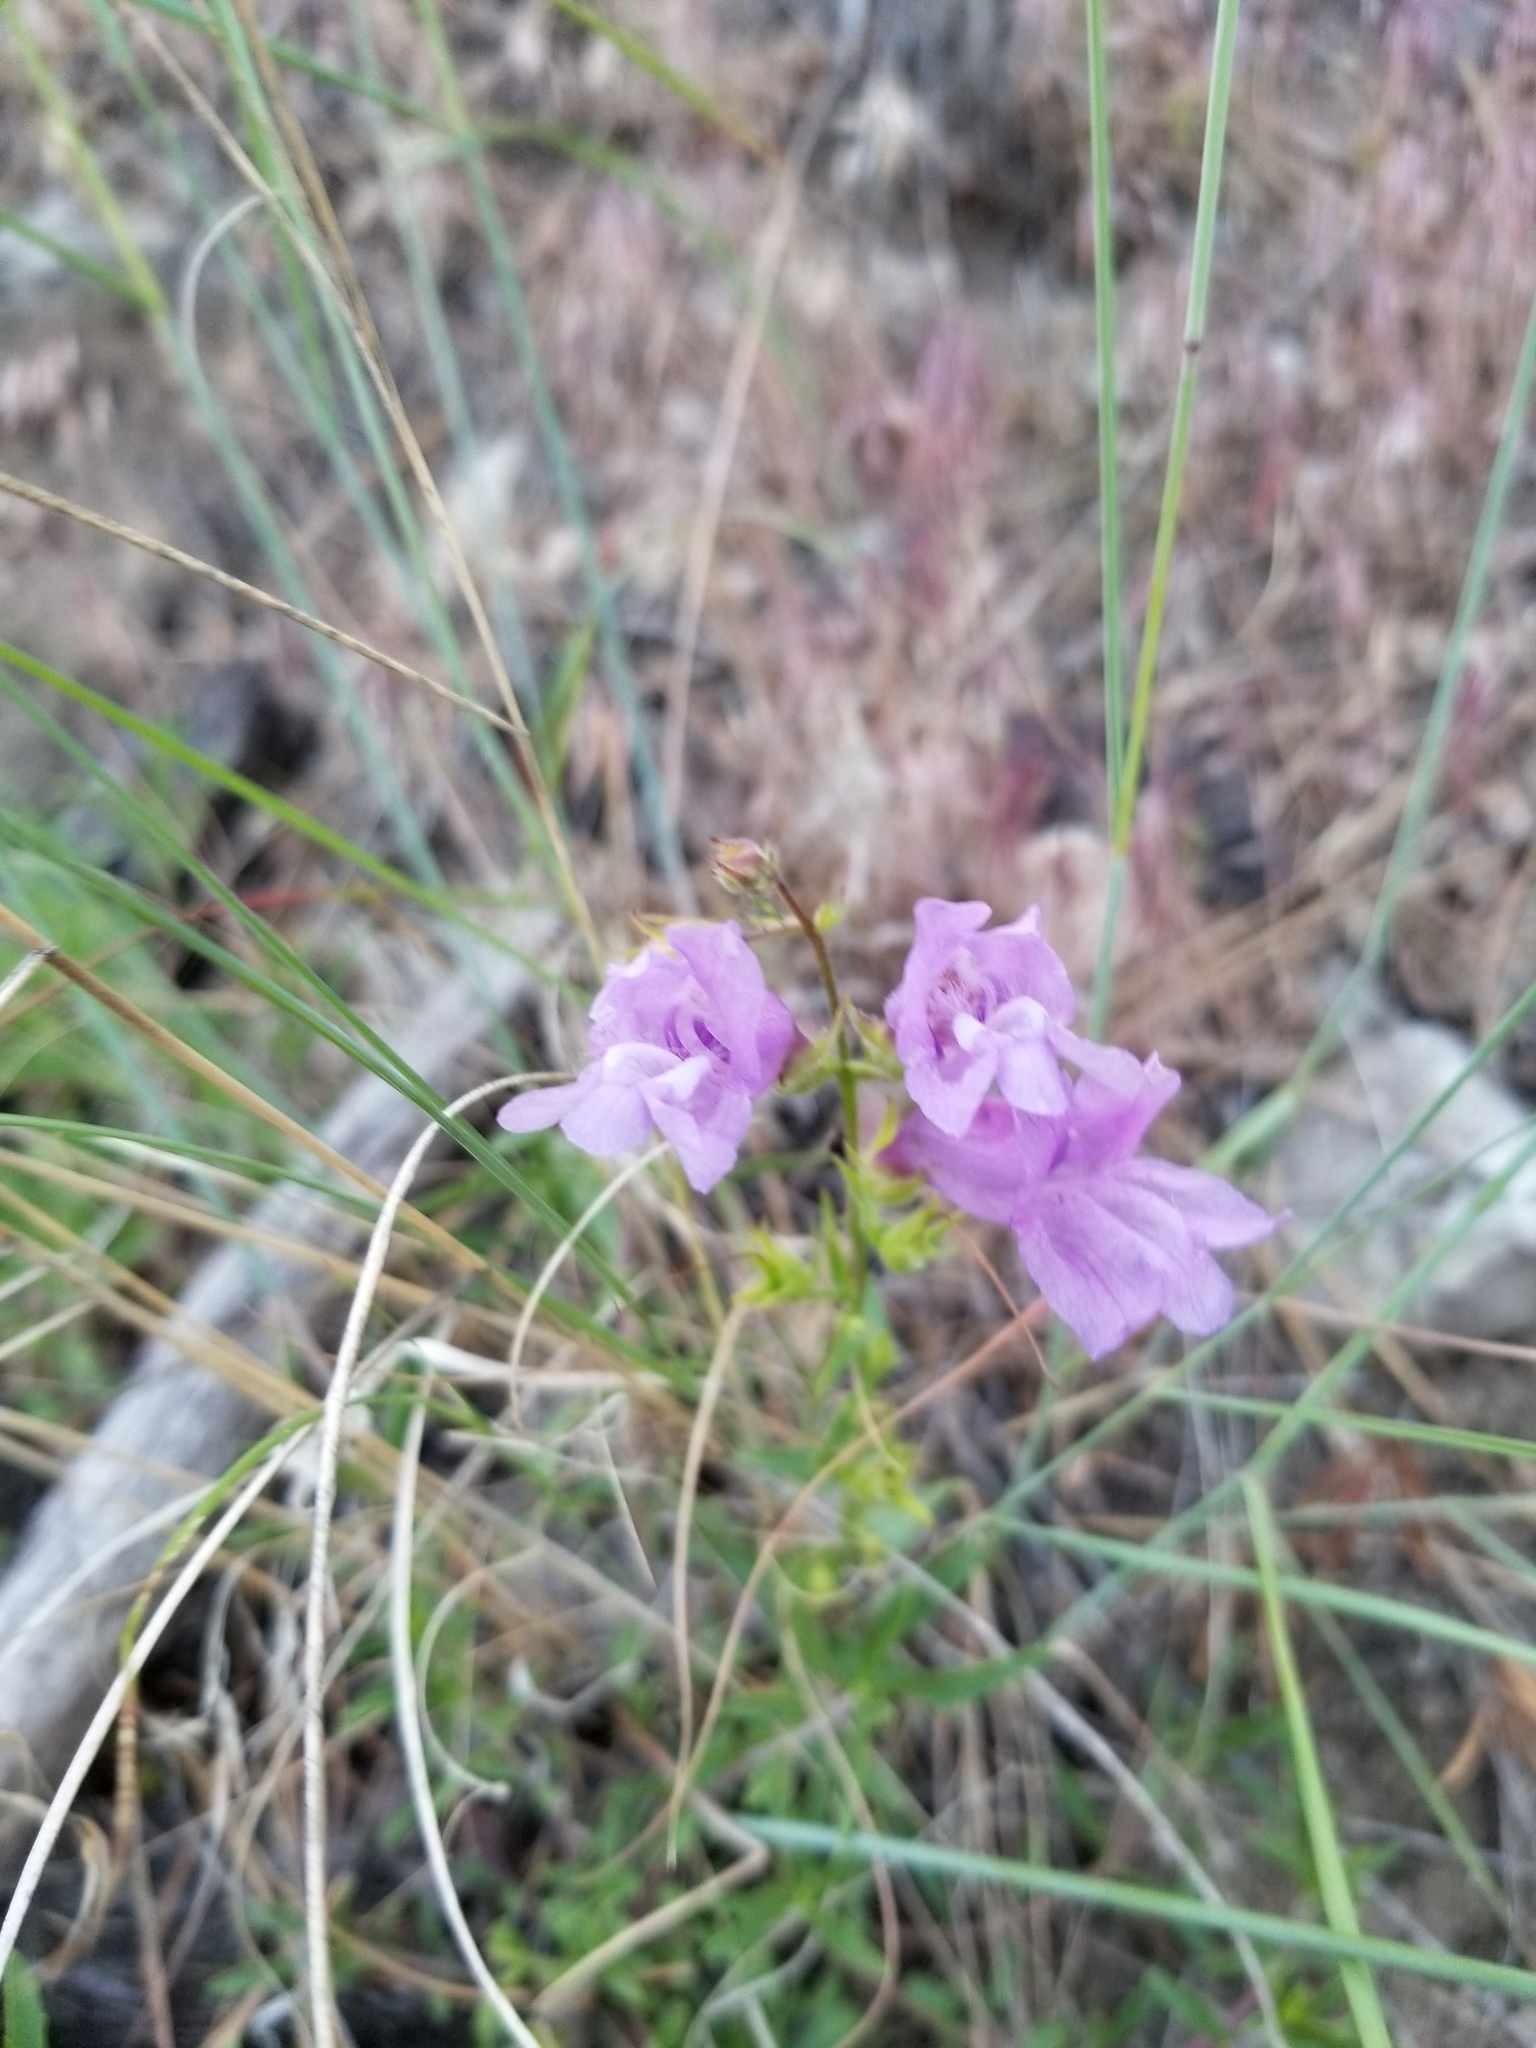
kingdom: Plantae
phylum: Tracheophyta
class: Magnoliopsida
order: Lamiales
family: Plantaginaceae
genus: Penstemon
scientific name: Penstemon fruticosus
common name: Bush penstemon
